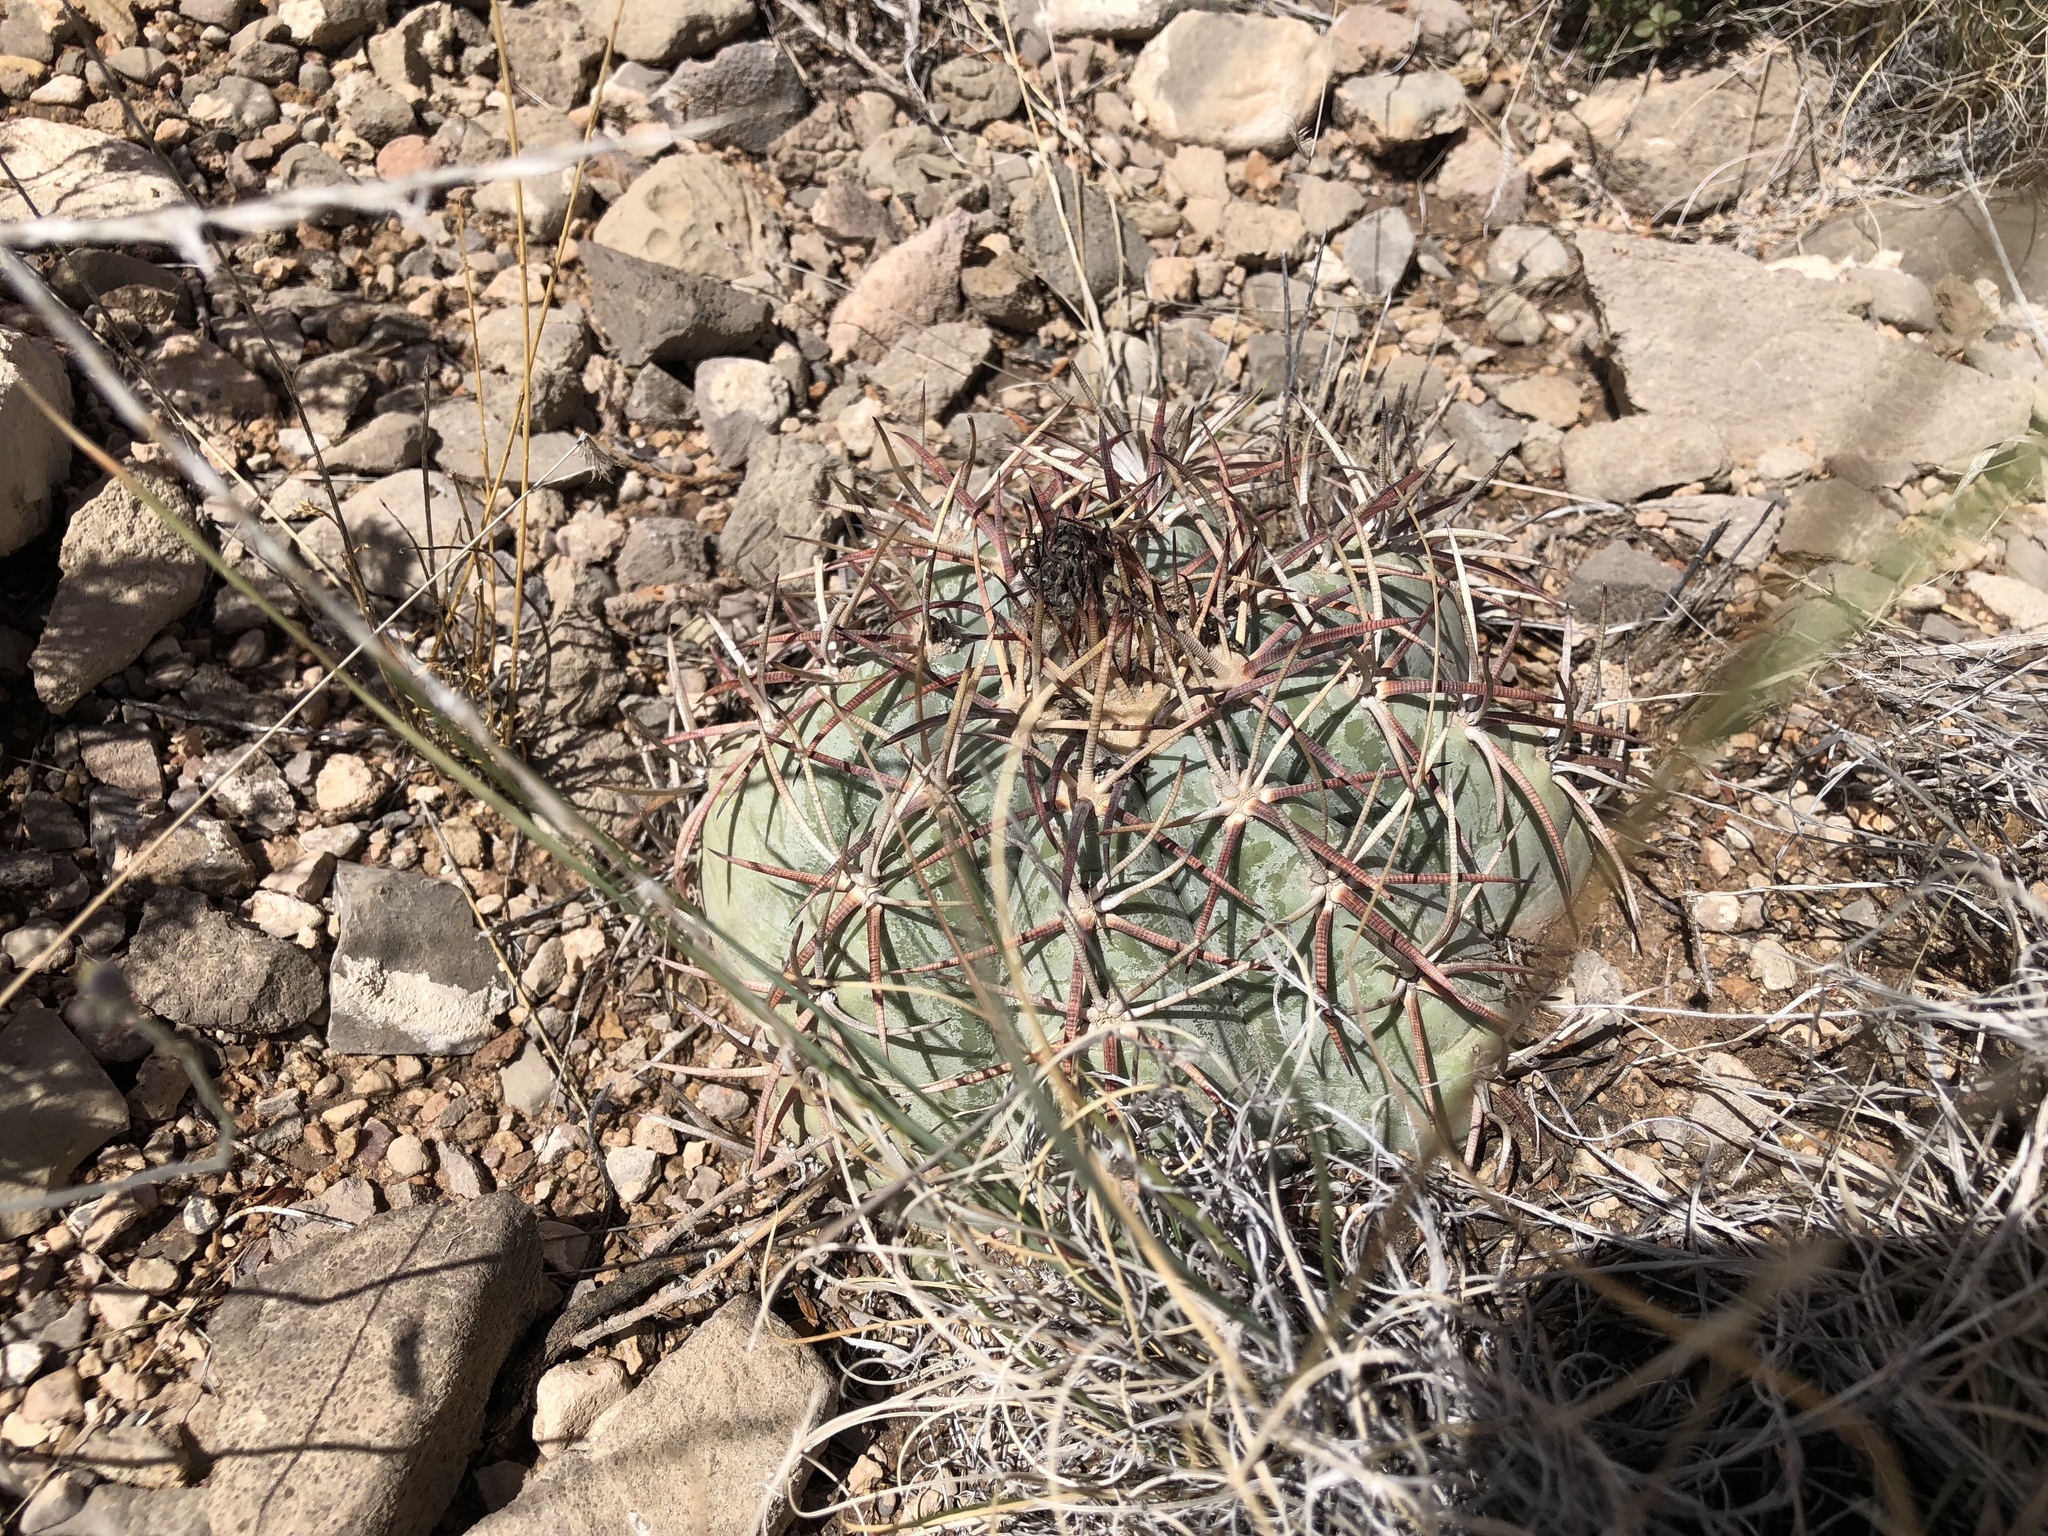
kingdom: Plantae
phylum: Tracheophyta
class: Magnoliopsida
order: Caryophyllales
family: Cactaceae
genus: Echinocactus
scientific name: Echinocactus horizonthalonius
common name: Devilshead
